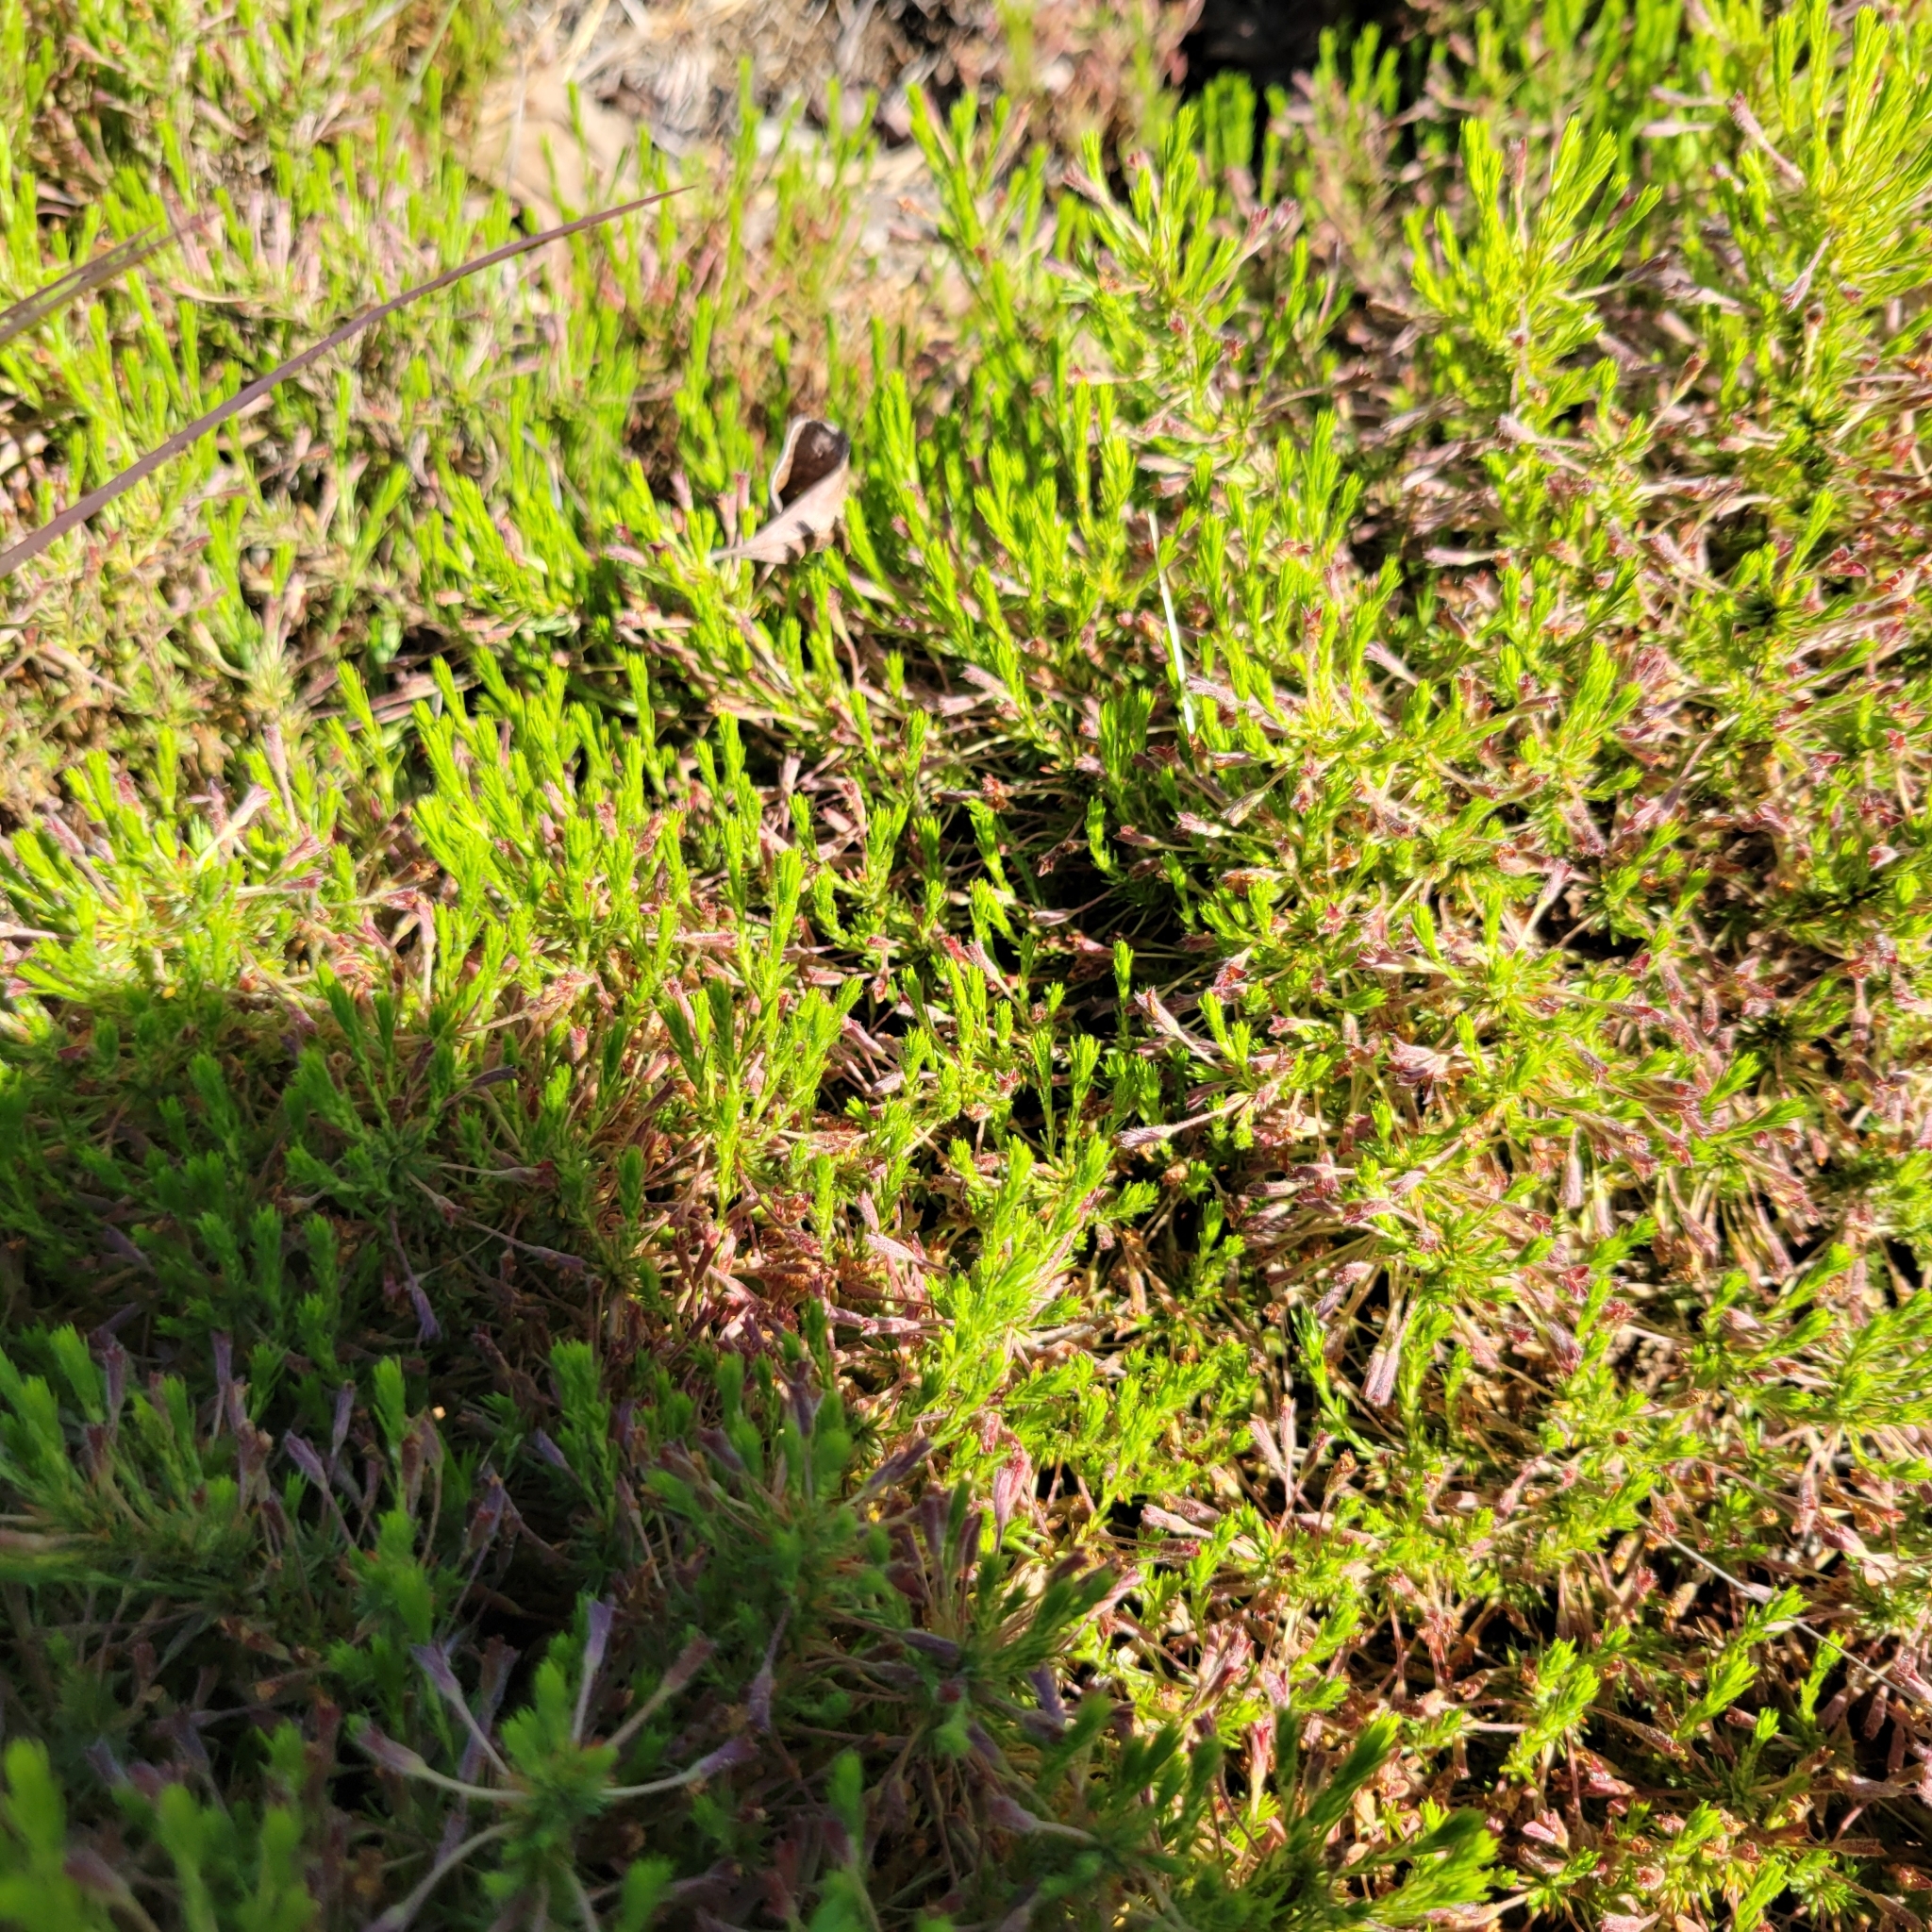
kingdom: Plantae
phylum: Tracheophyta
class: Magnoliopsida
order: Malvales
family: Cistaceae
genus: Hudsonia
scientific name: Hudsonia ericoides
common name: Golden-heather
